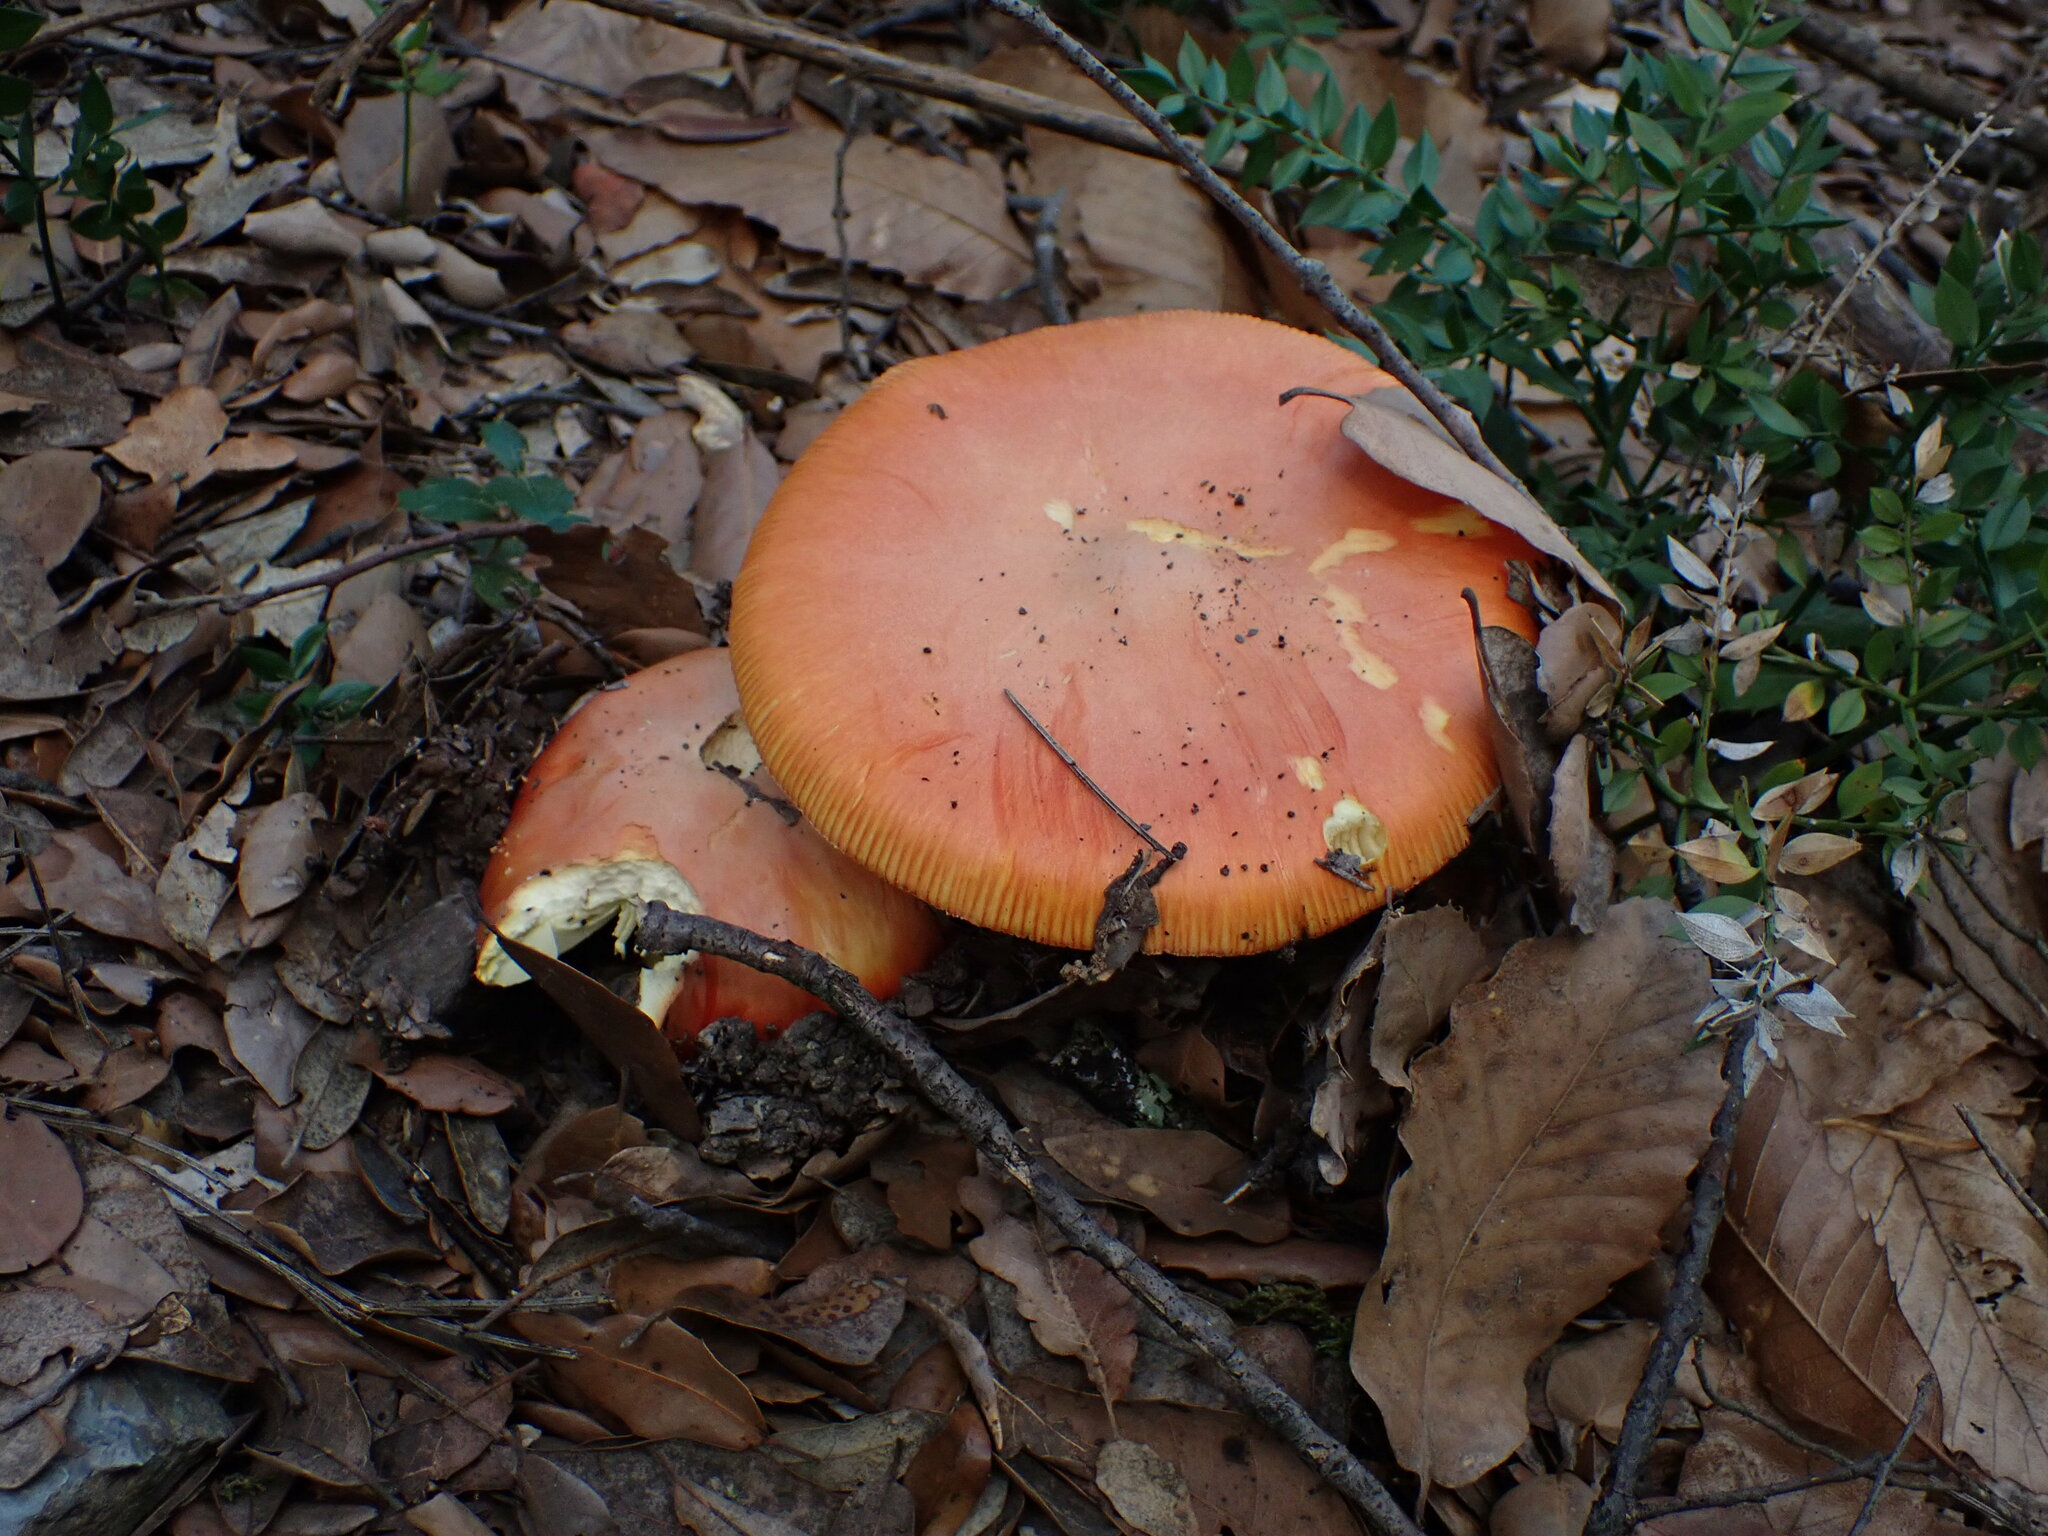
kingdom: Fungi
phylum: Basidiomycota
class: Agaricomycetes
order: Agaricales
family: Amanitaceae
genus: Amanita
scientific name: Amanita caesarea
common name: Caesar's amanita
